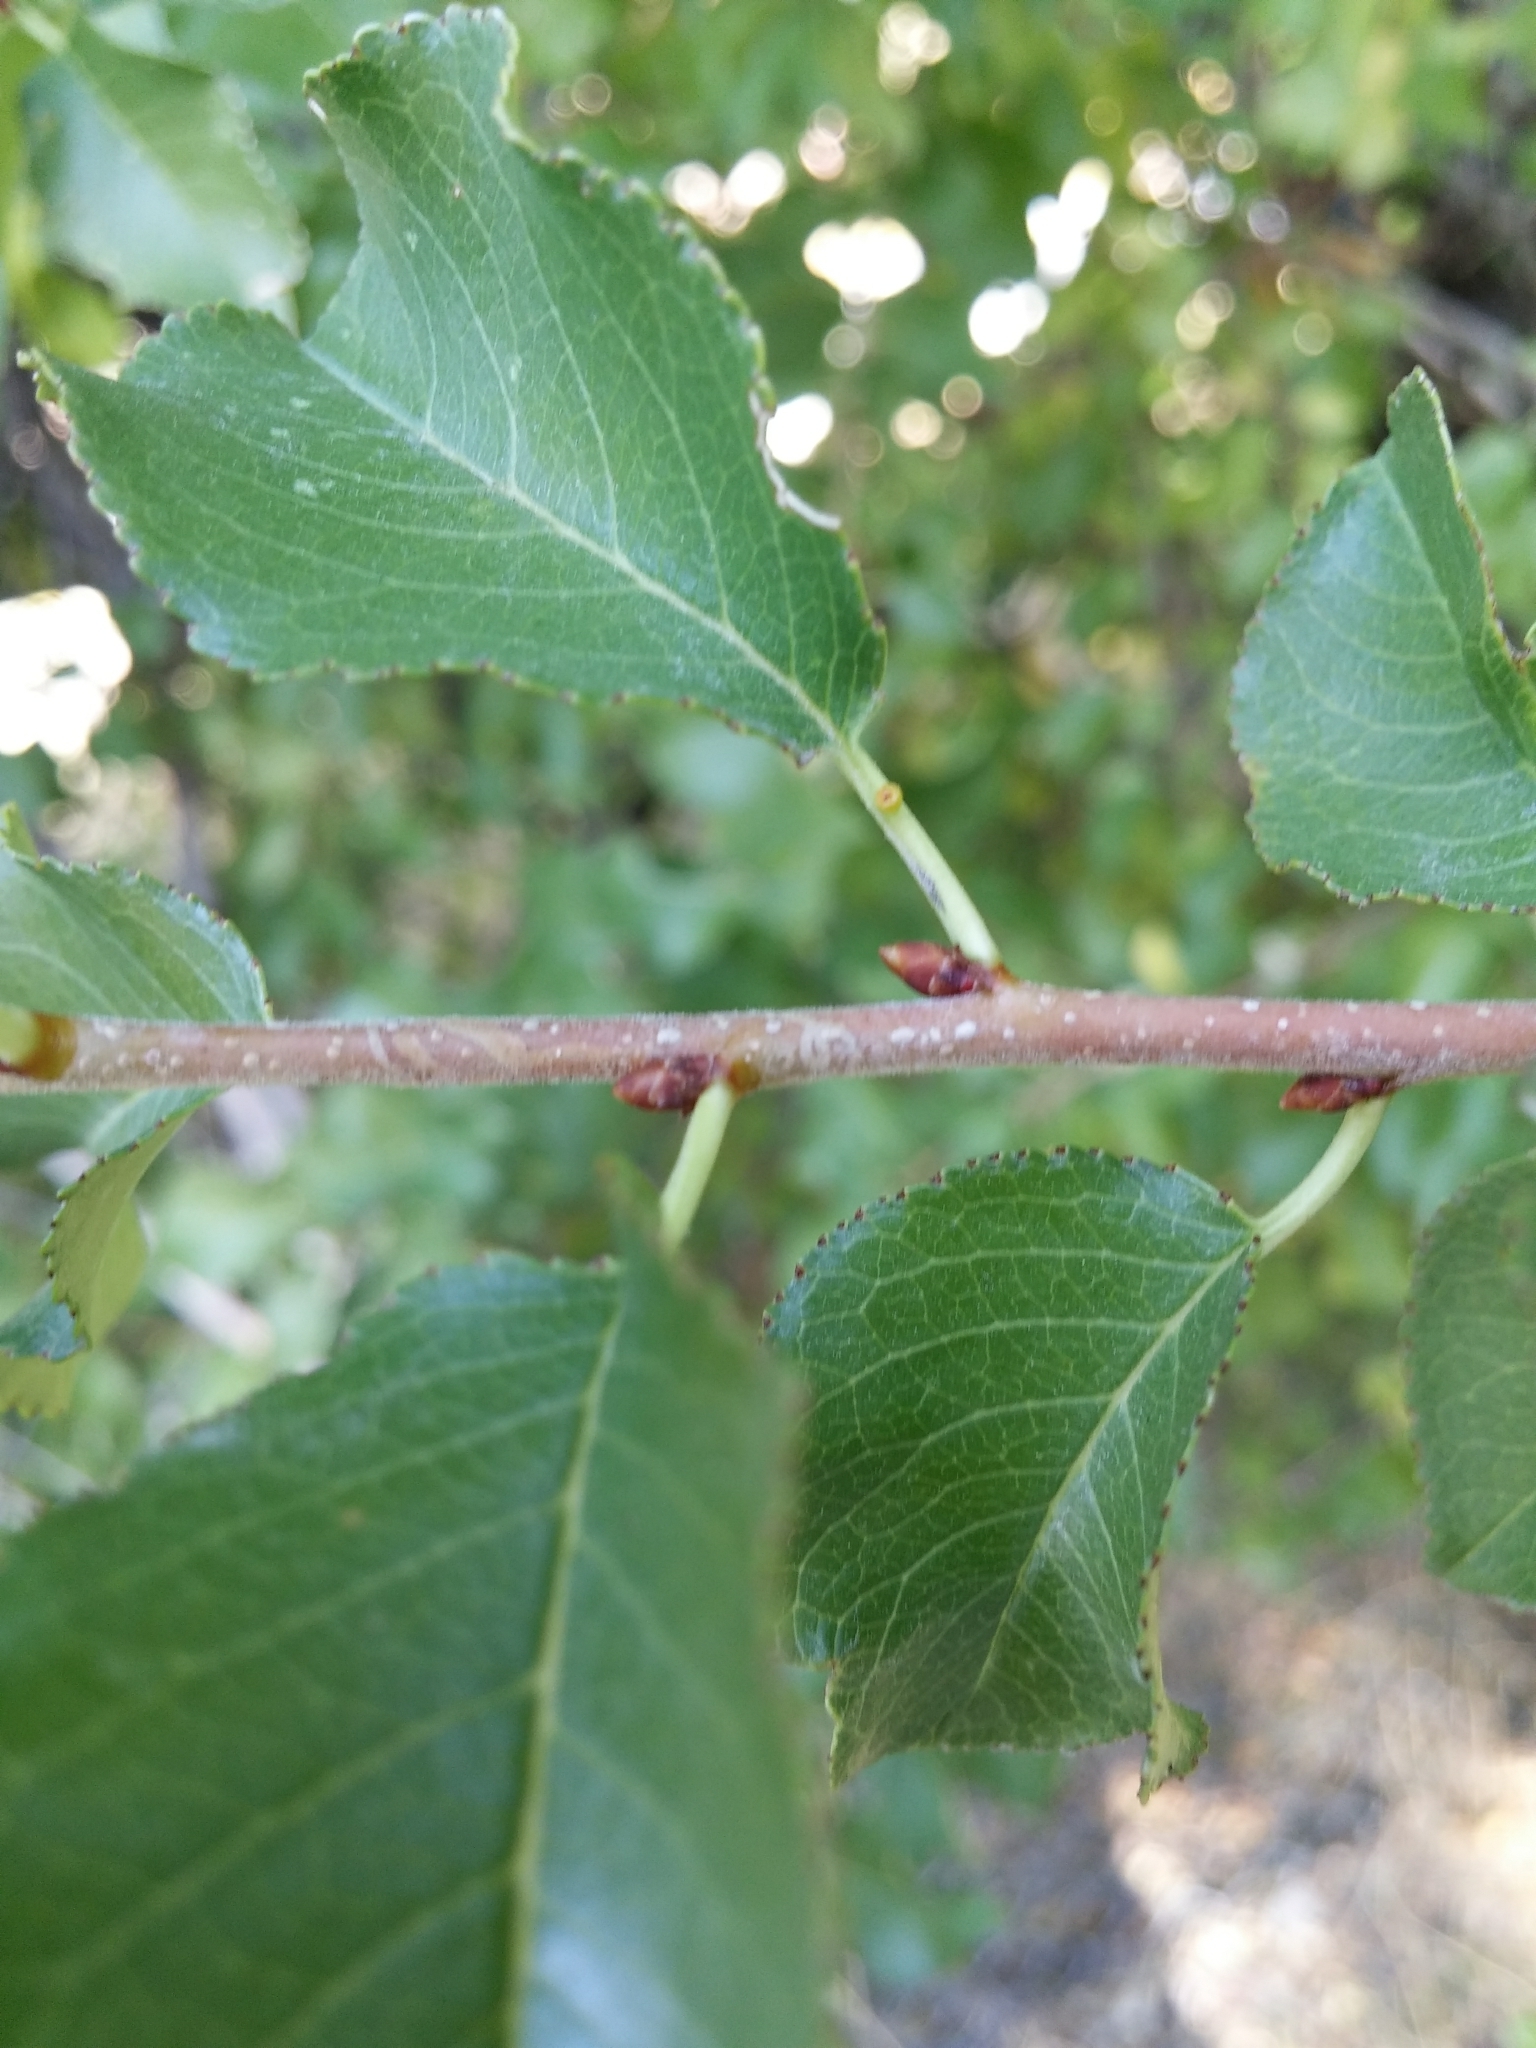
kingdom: Plantae
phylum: Tracheophyta
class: Magnoliopsida
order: Rosales
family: Rosaceae
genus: Prunus
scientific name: Prunus mahaleb
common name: Mahaleb cherry
